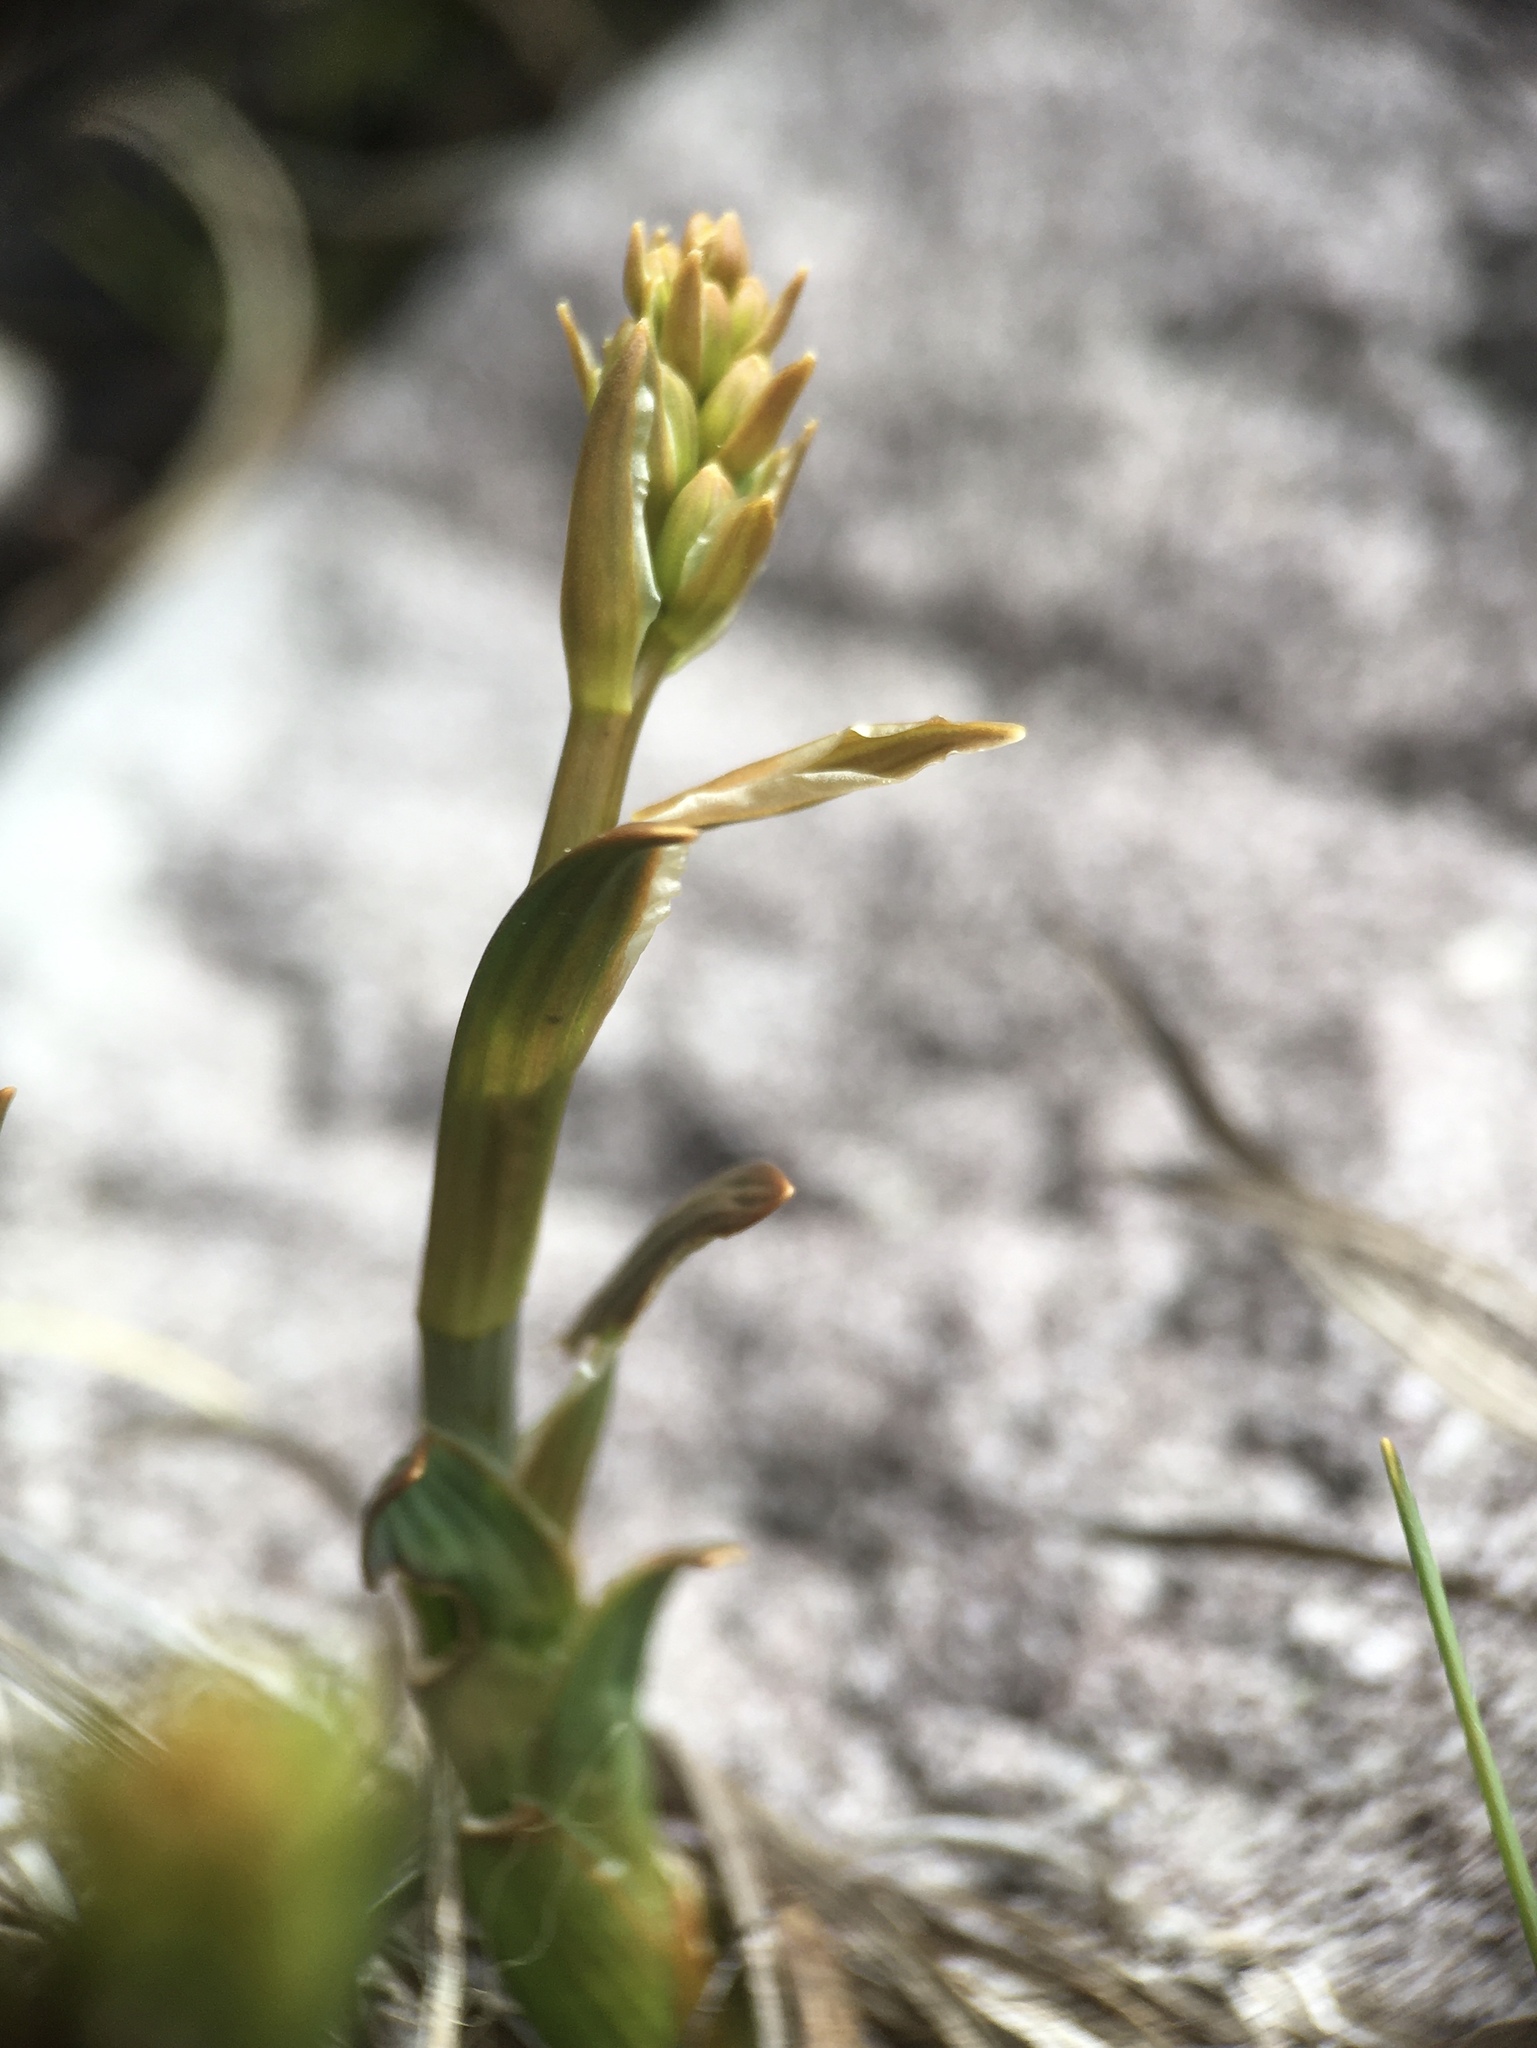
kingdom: Plantae
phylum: Tracheophyta
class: Liliopsida
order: Dioscoreales
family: Nartheciaceae
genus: Narthecium
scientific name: Narthecium ossifragum
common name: Bog asphodel
